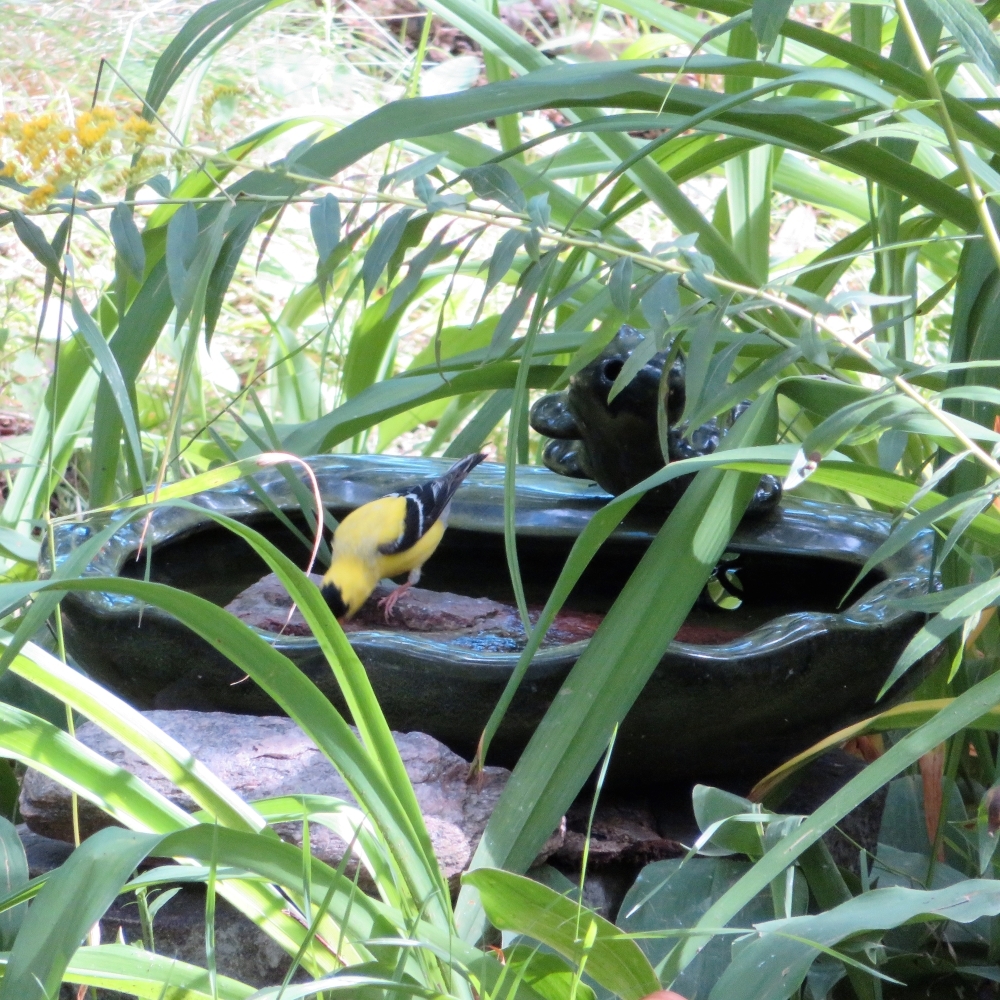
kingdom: Animalia
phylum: Chordata
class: Aves
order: Passeriformes
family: Fringillidae
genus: Spinus
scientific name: Spinus tristis
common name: American goldfinch
